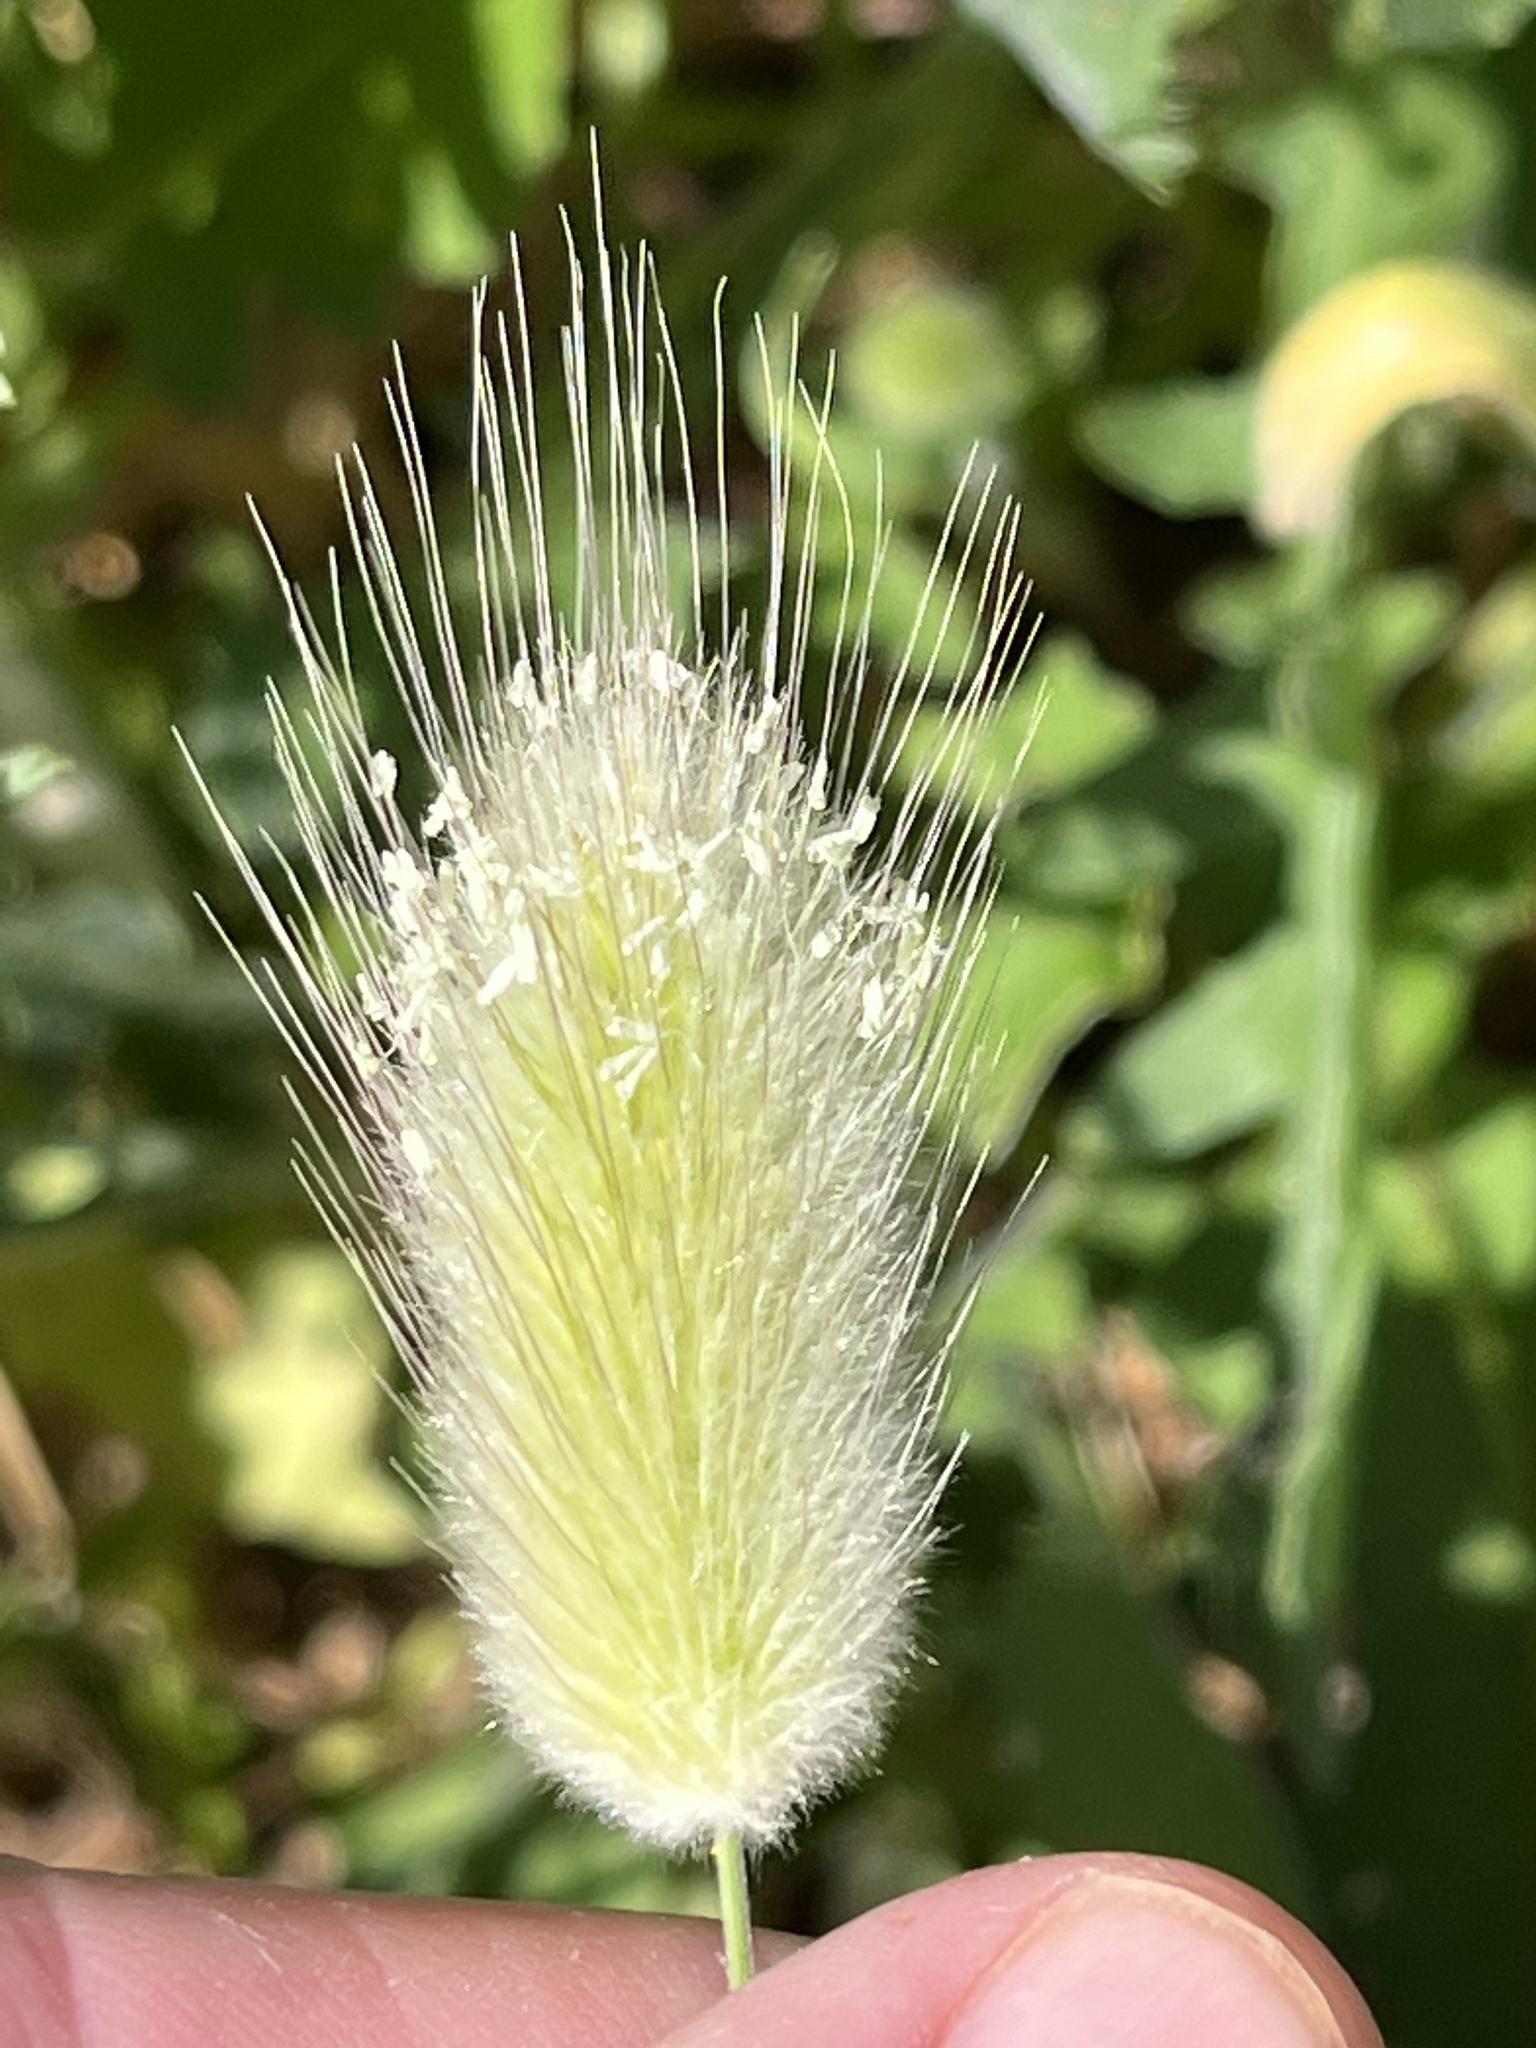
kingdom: Plantae
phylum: Tracheophyta
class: Liliopsida
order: Poales
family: Poaceae
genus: Lagurus
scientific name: Lagurus ovatus
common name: Hare's-tail
